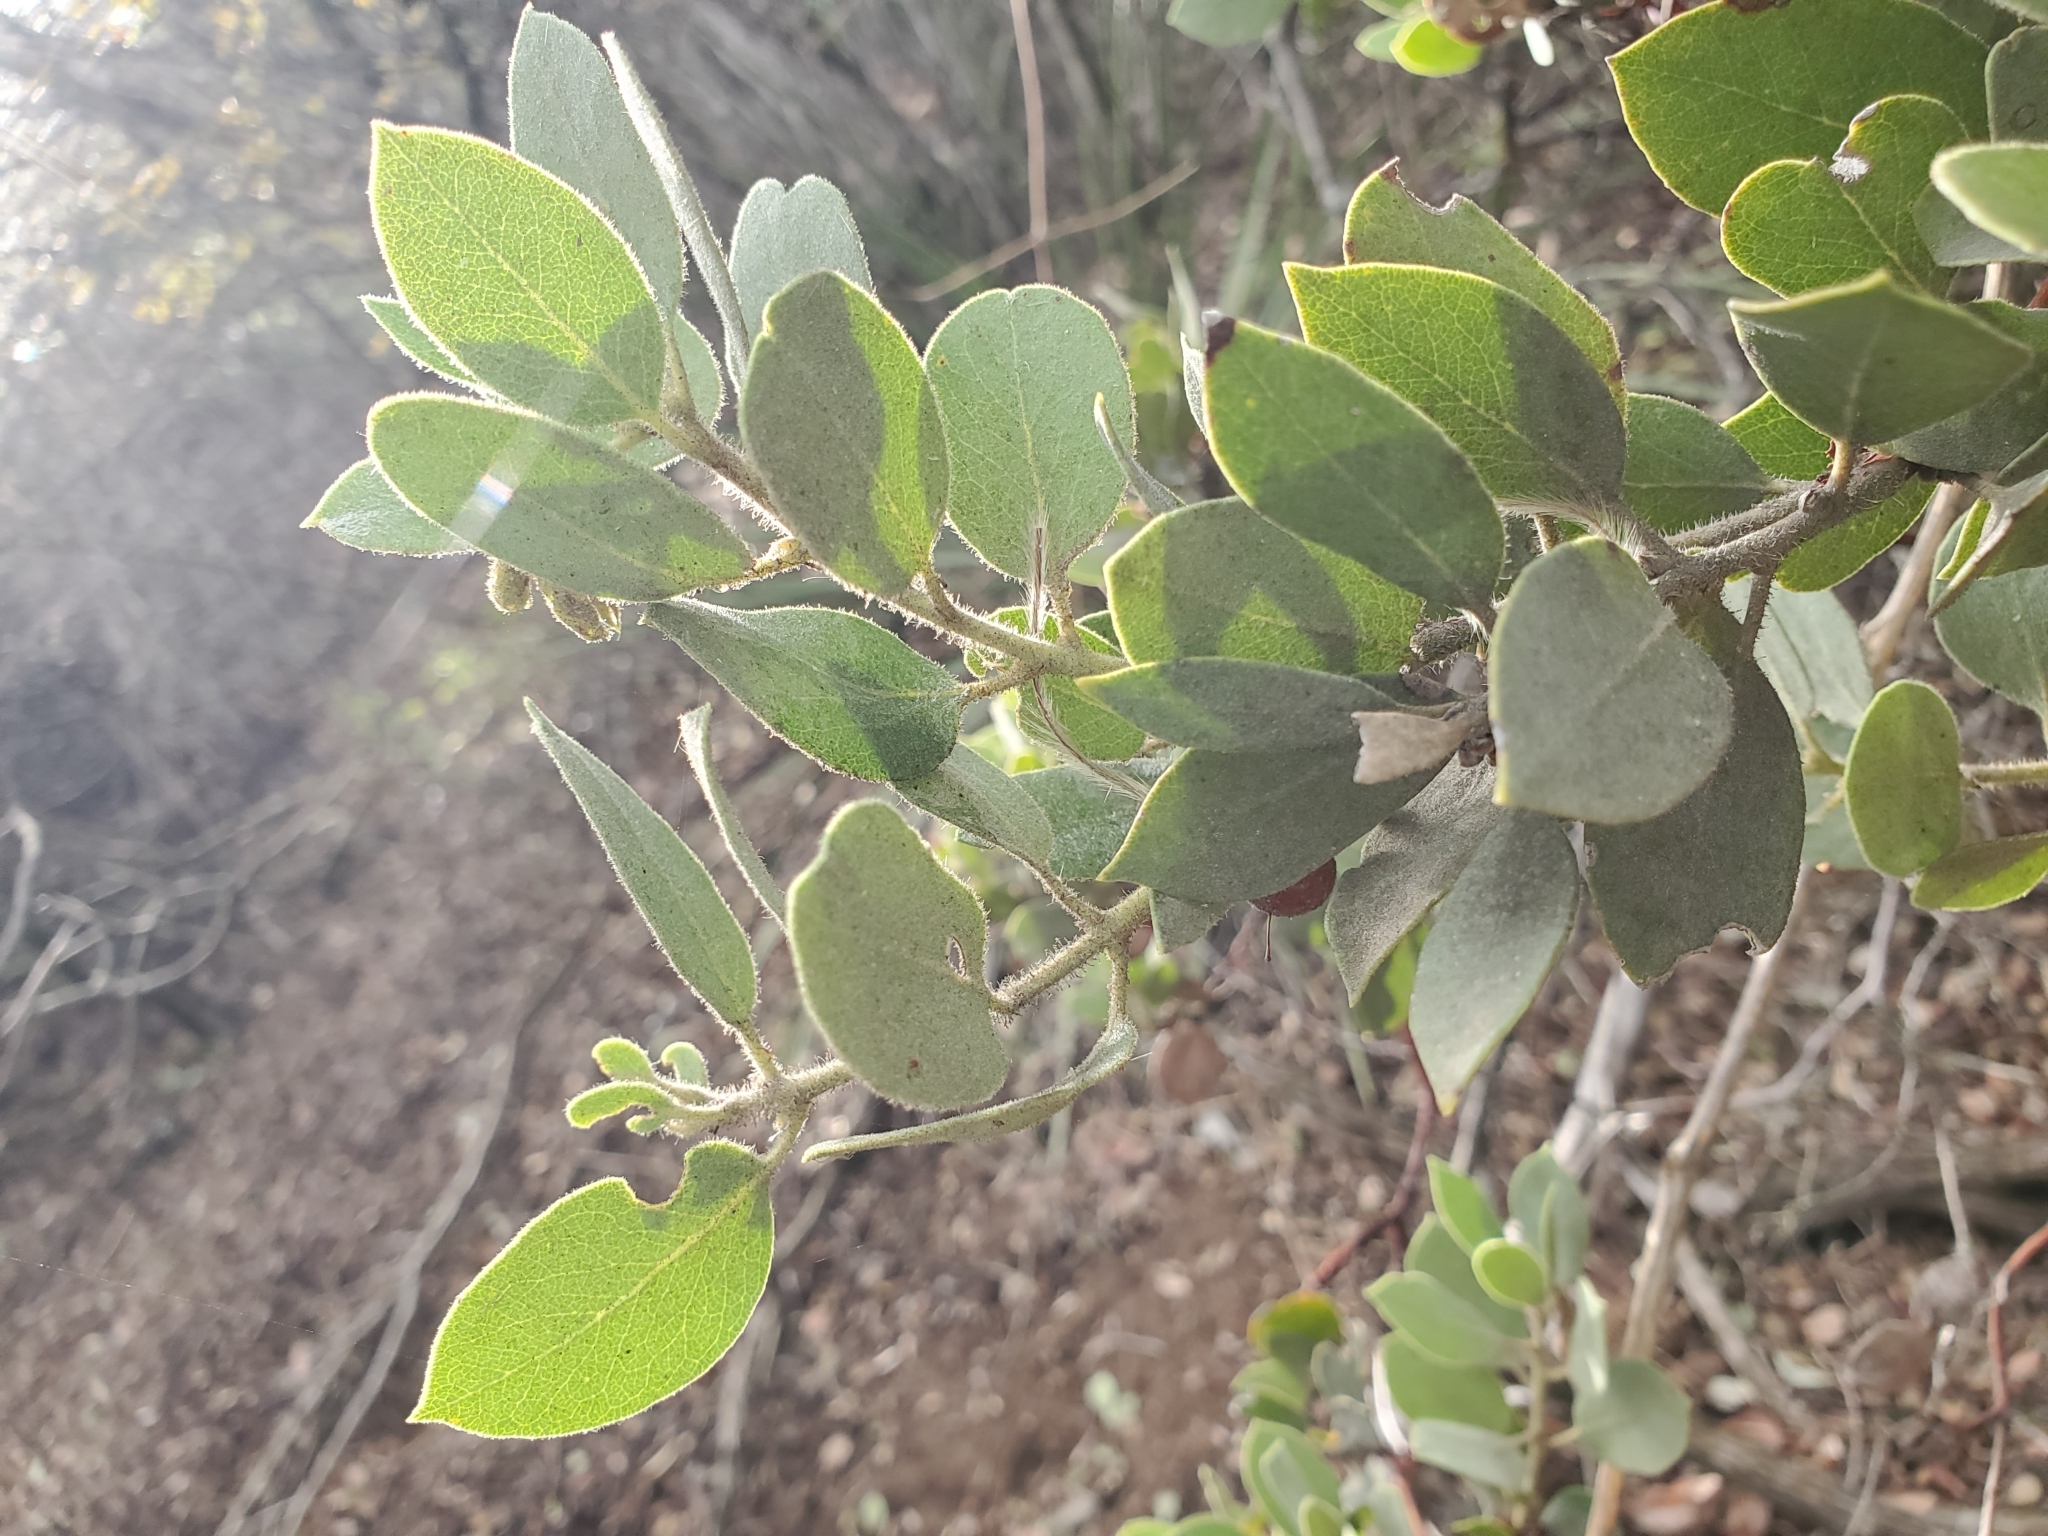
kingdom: Plantae
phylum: Tracheophyta
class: Magnoliopsida
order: Ericales
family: Ericaceae
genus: Arctostaphylos
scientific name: Arctostaphylos glandulosa
